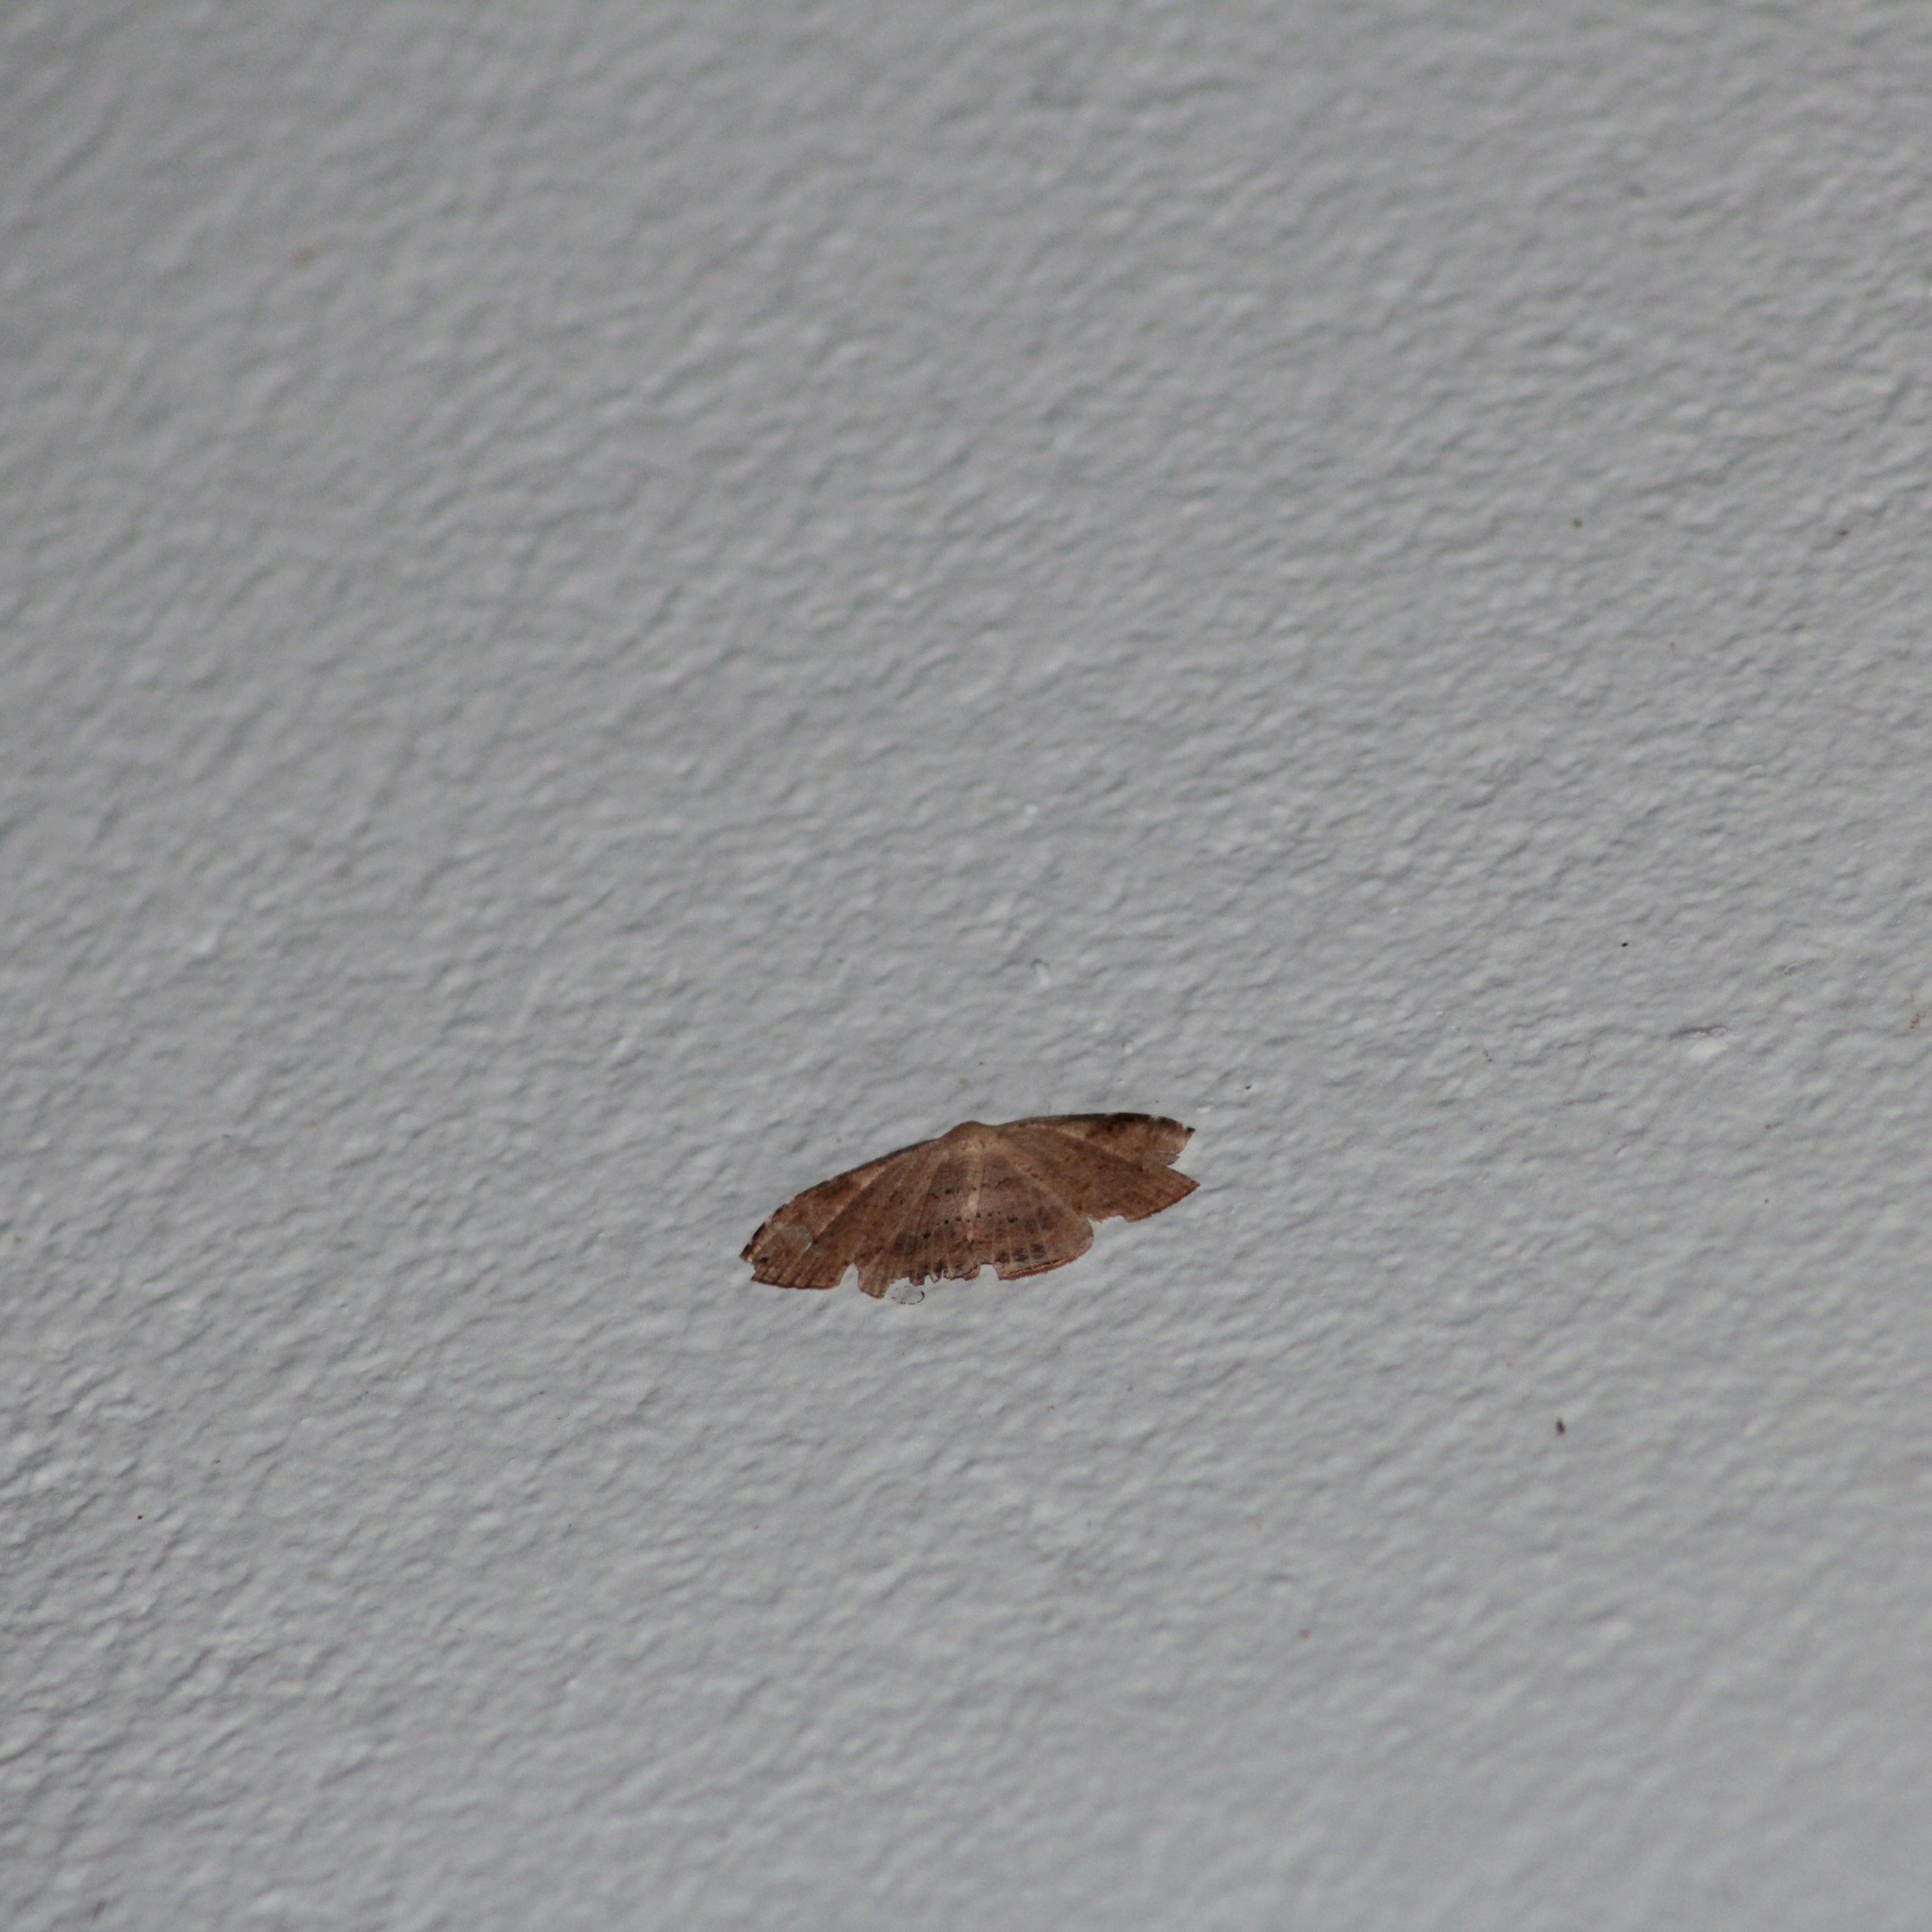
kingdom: Animalia
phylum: Arthropoda
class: Insecta
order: Lepidoptera
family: Uraniidae
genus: Coelurotricha
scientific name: Coelurotricha curvilinea
